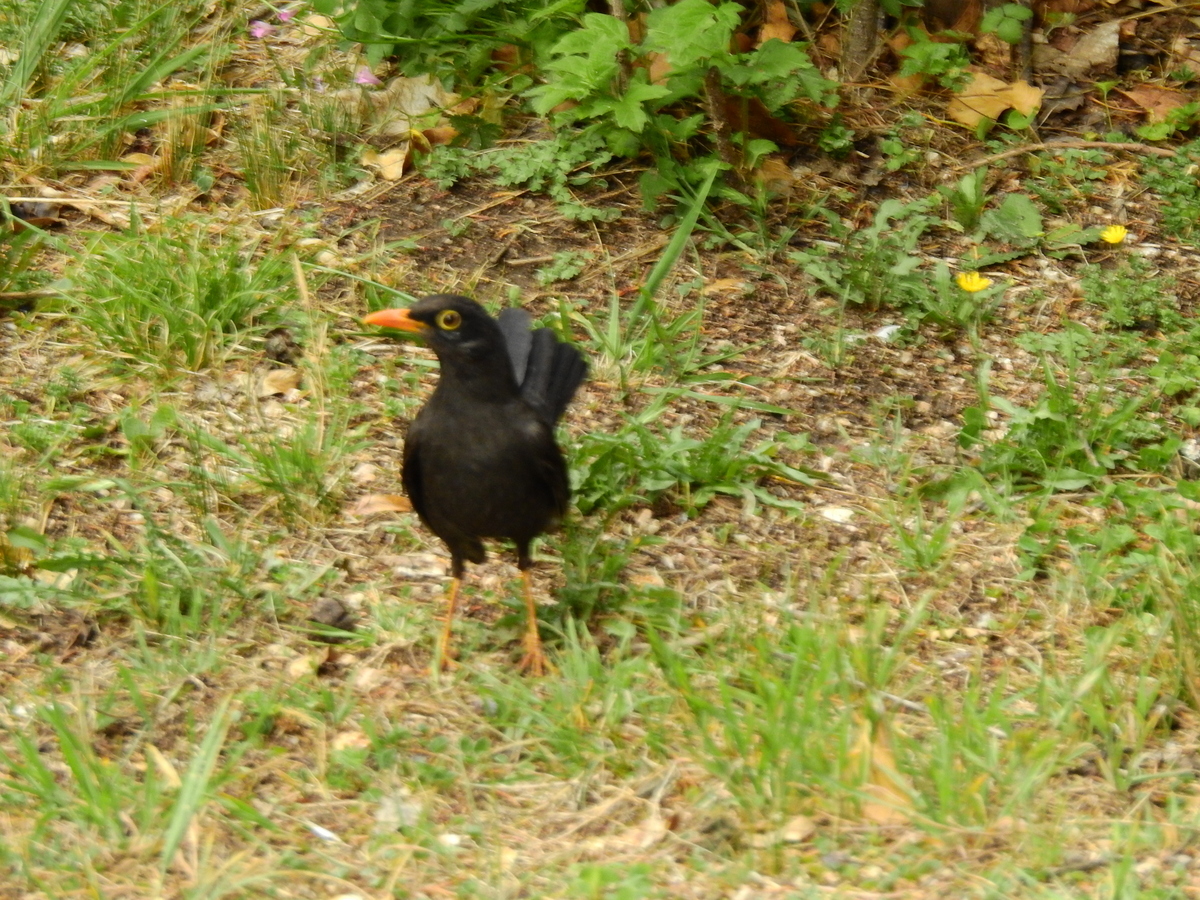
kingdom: Animalia
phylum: Chordata
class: Aves
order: Passeriformes
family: Turdidae
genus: Turdus
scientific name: Turdus chiguanco
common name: Chiguanco thrush
